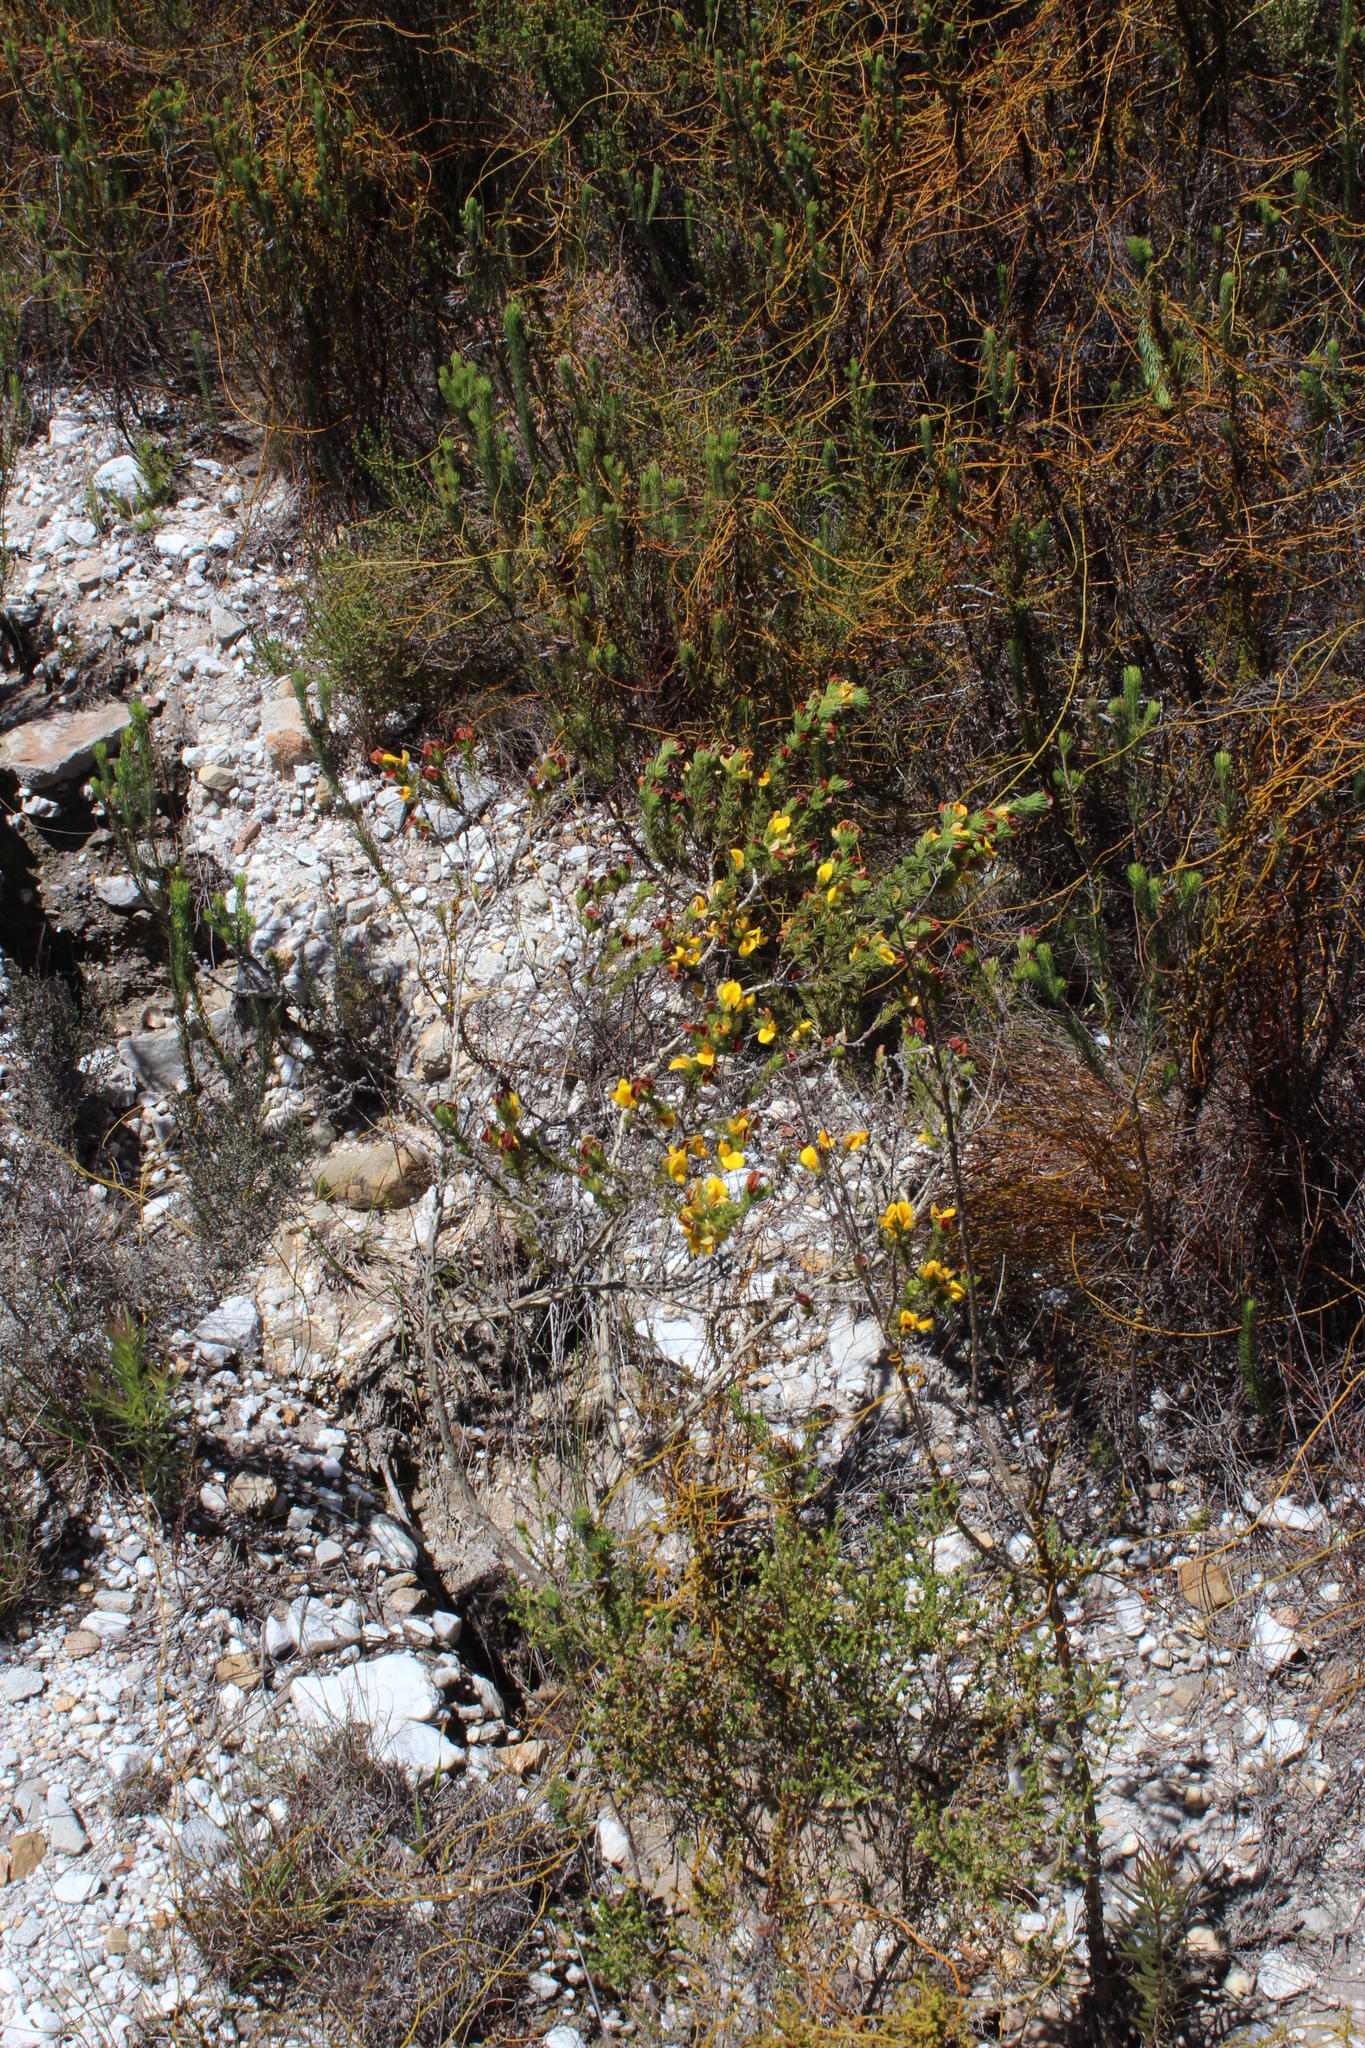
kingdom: Plantae
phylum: Tracheophyta
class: Magnoliopsida
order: Fabales
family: Fabaceae
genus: Aspalathus
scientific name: Aspalathus spicata
